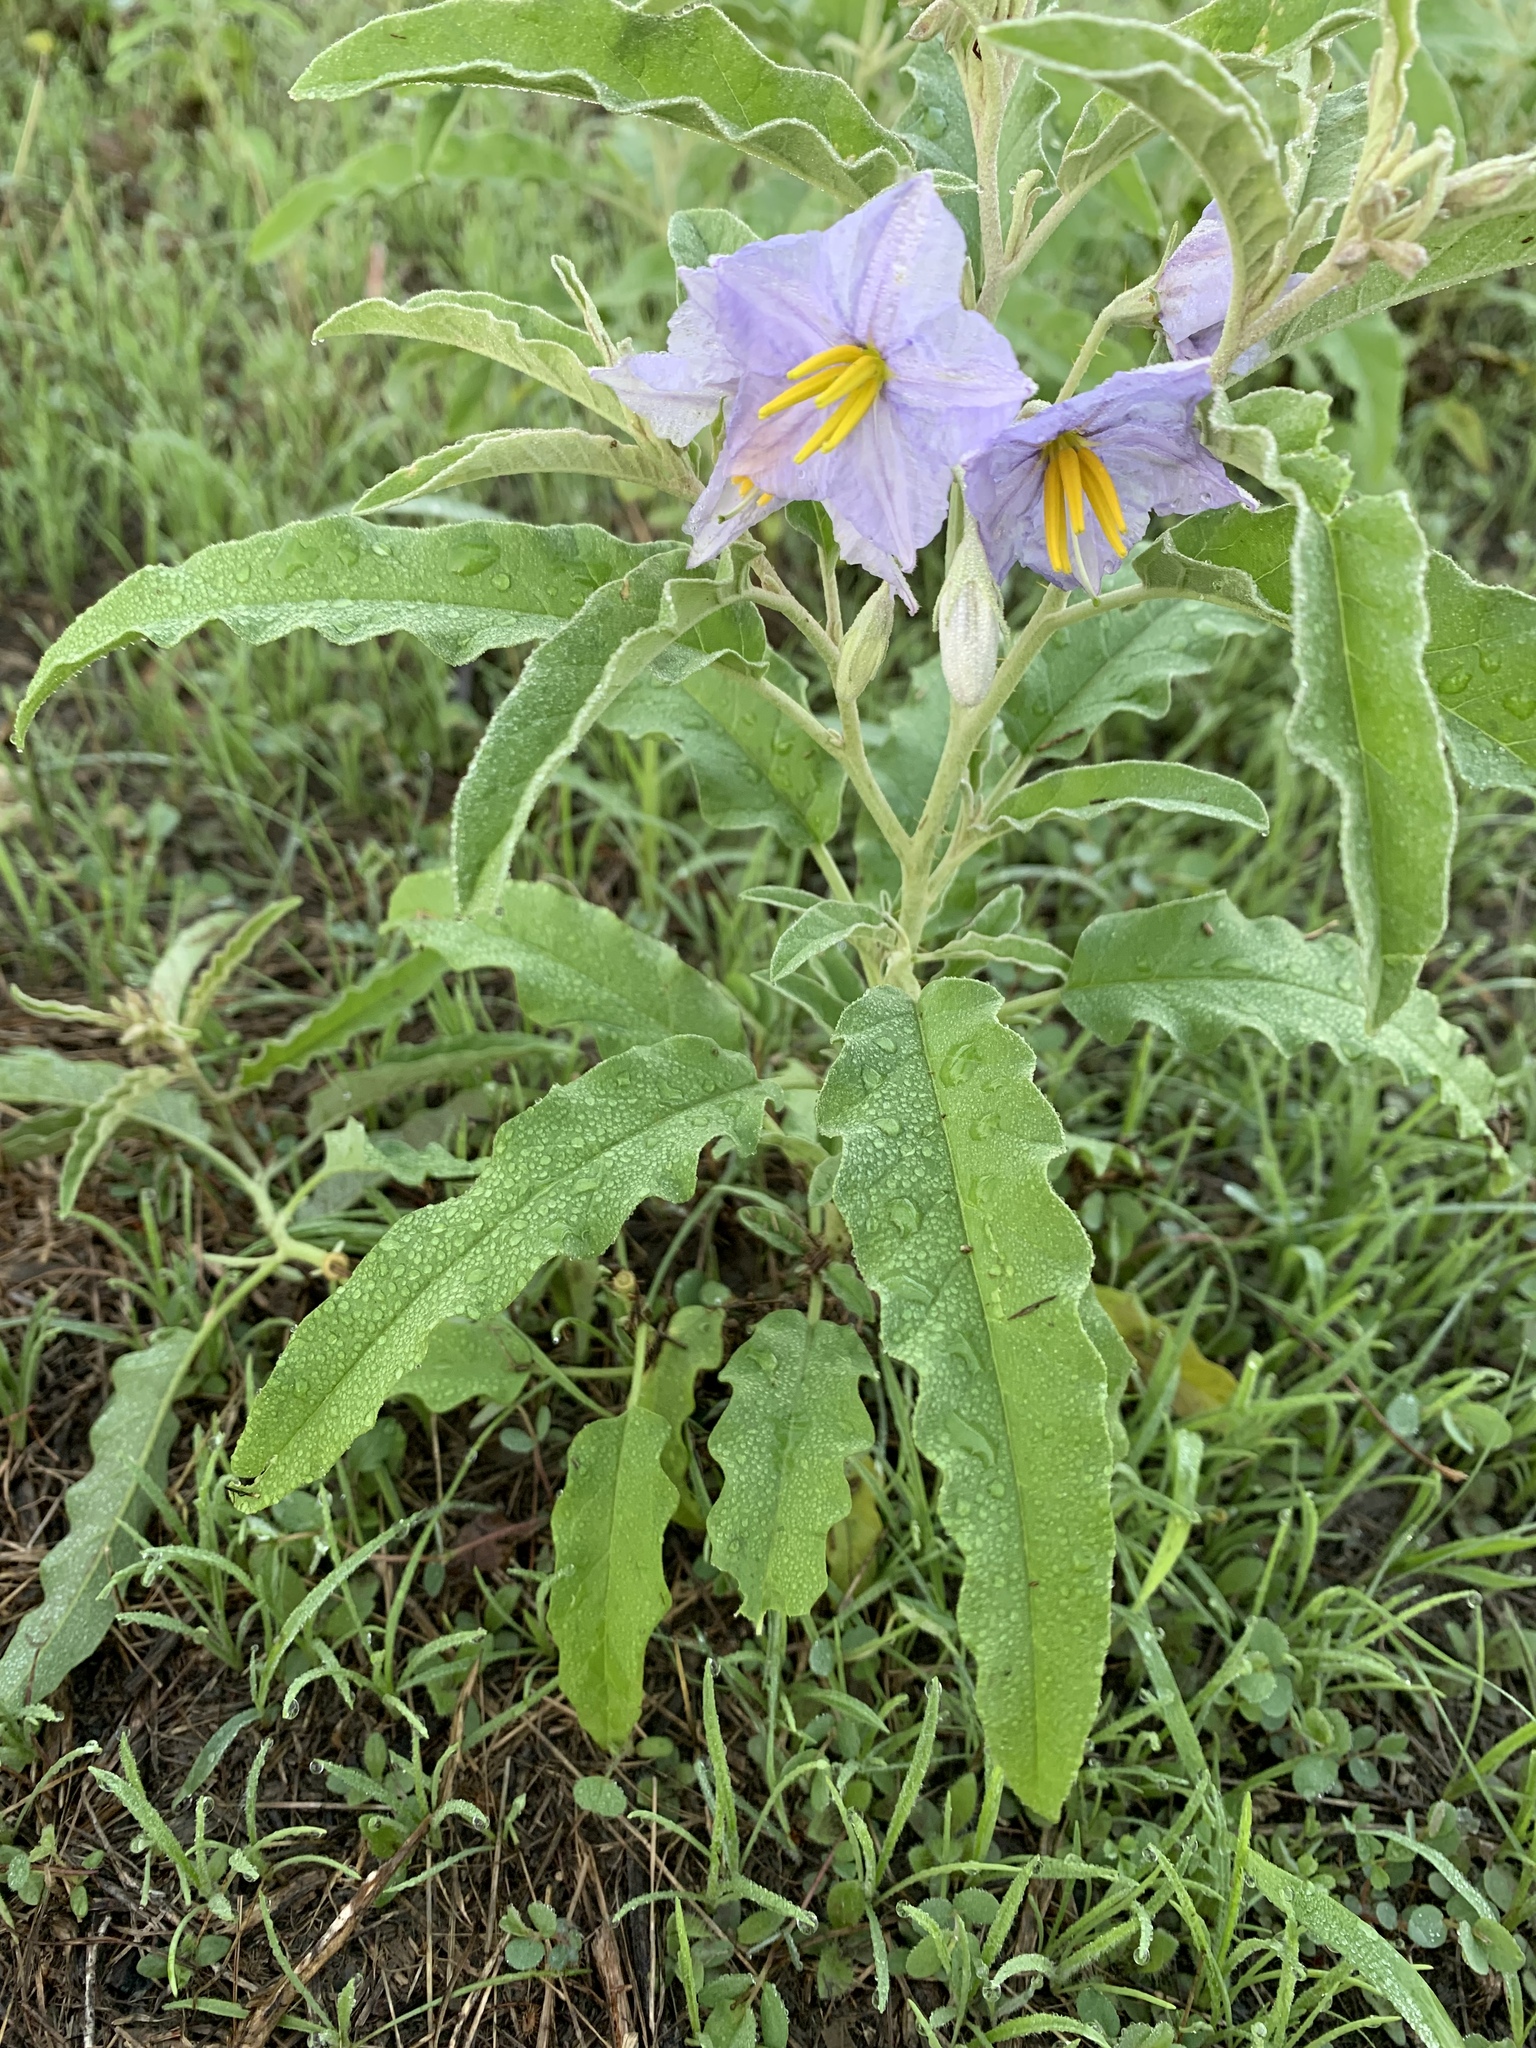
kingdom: Plantae
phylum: Tracheophyta
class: Magnoliopsida
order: Solanales
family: Solanaceae
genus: Solanum
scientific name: Solanum elaeagnifolium
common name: Silverleaf nightshade
